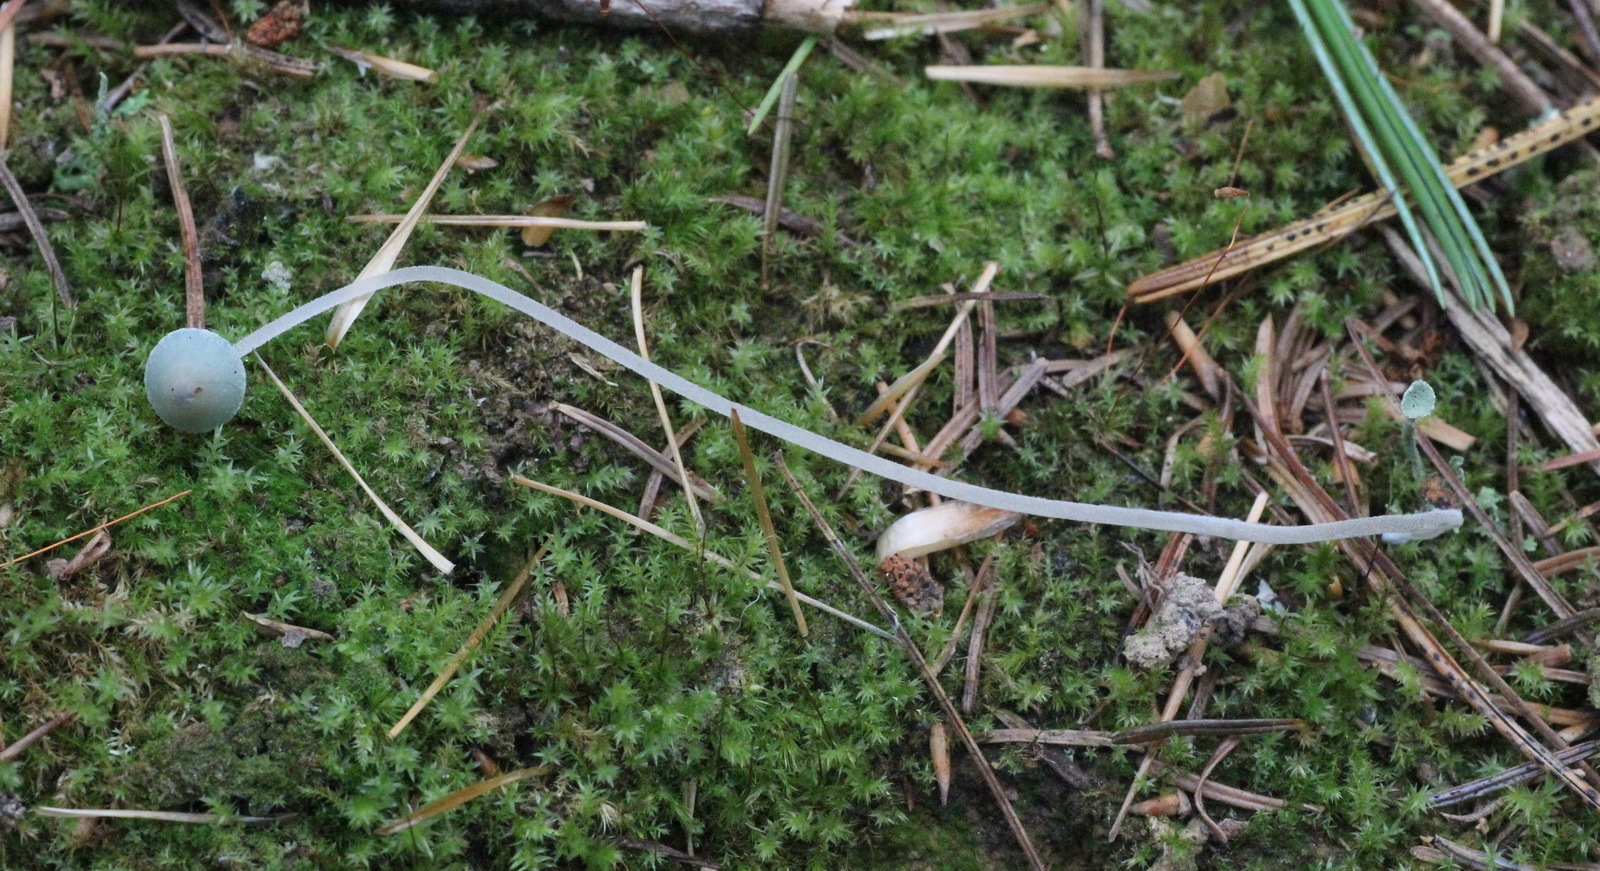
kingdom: Fungi
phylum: Basidiomycota
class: Agaricomycetes
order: Agaricales
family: Mycenaceae
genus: Mycena
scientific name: Mycena amicta
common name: Coldfoot bonnet
